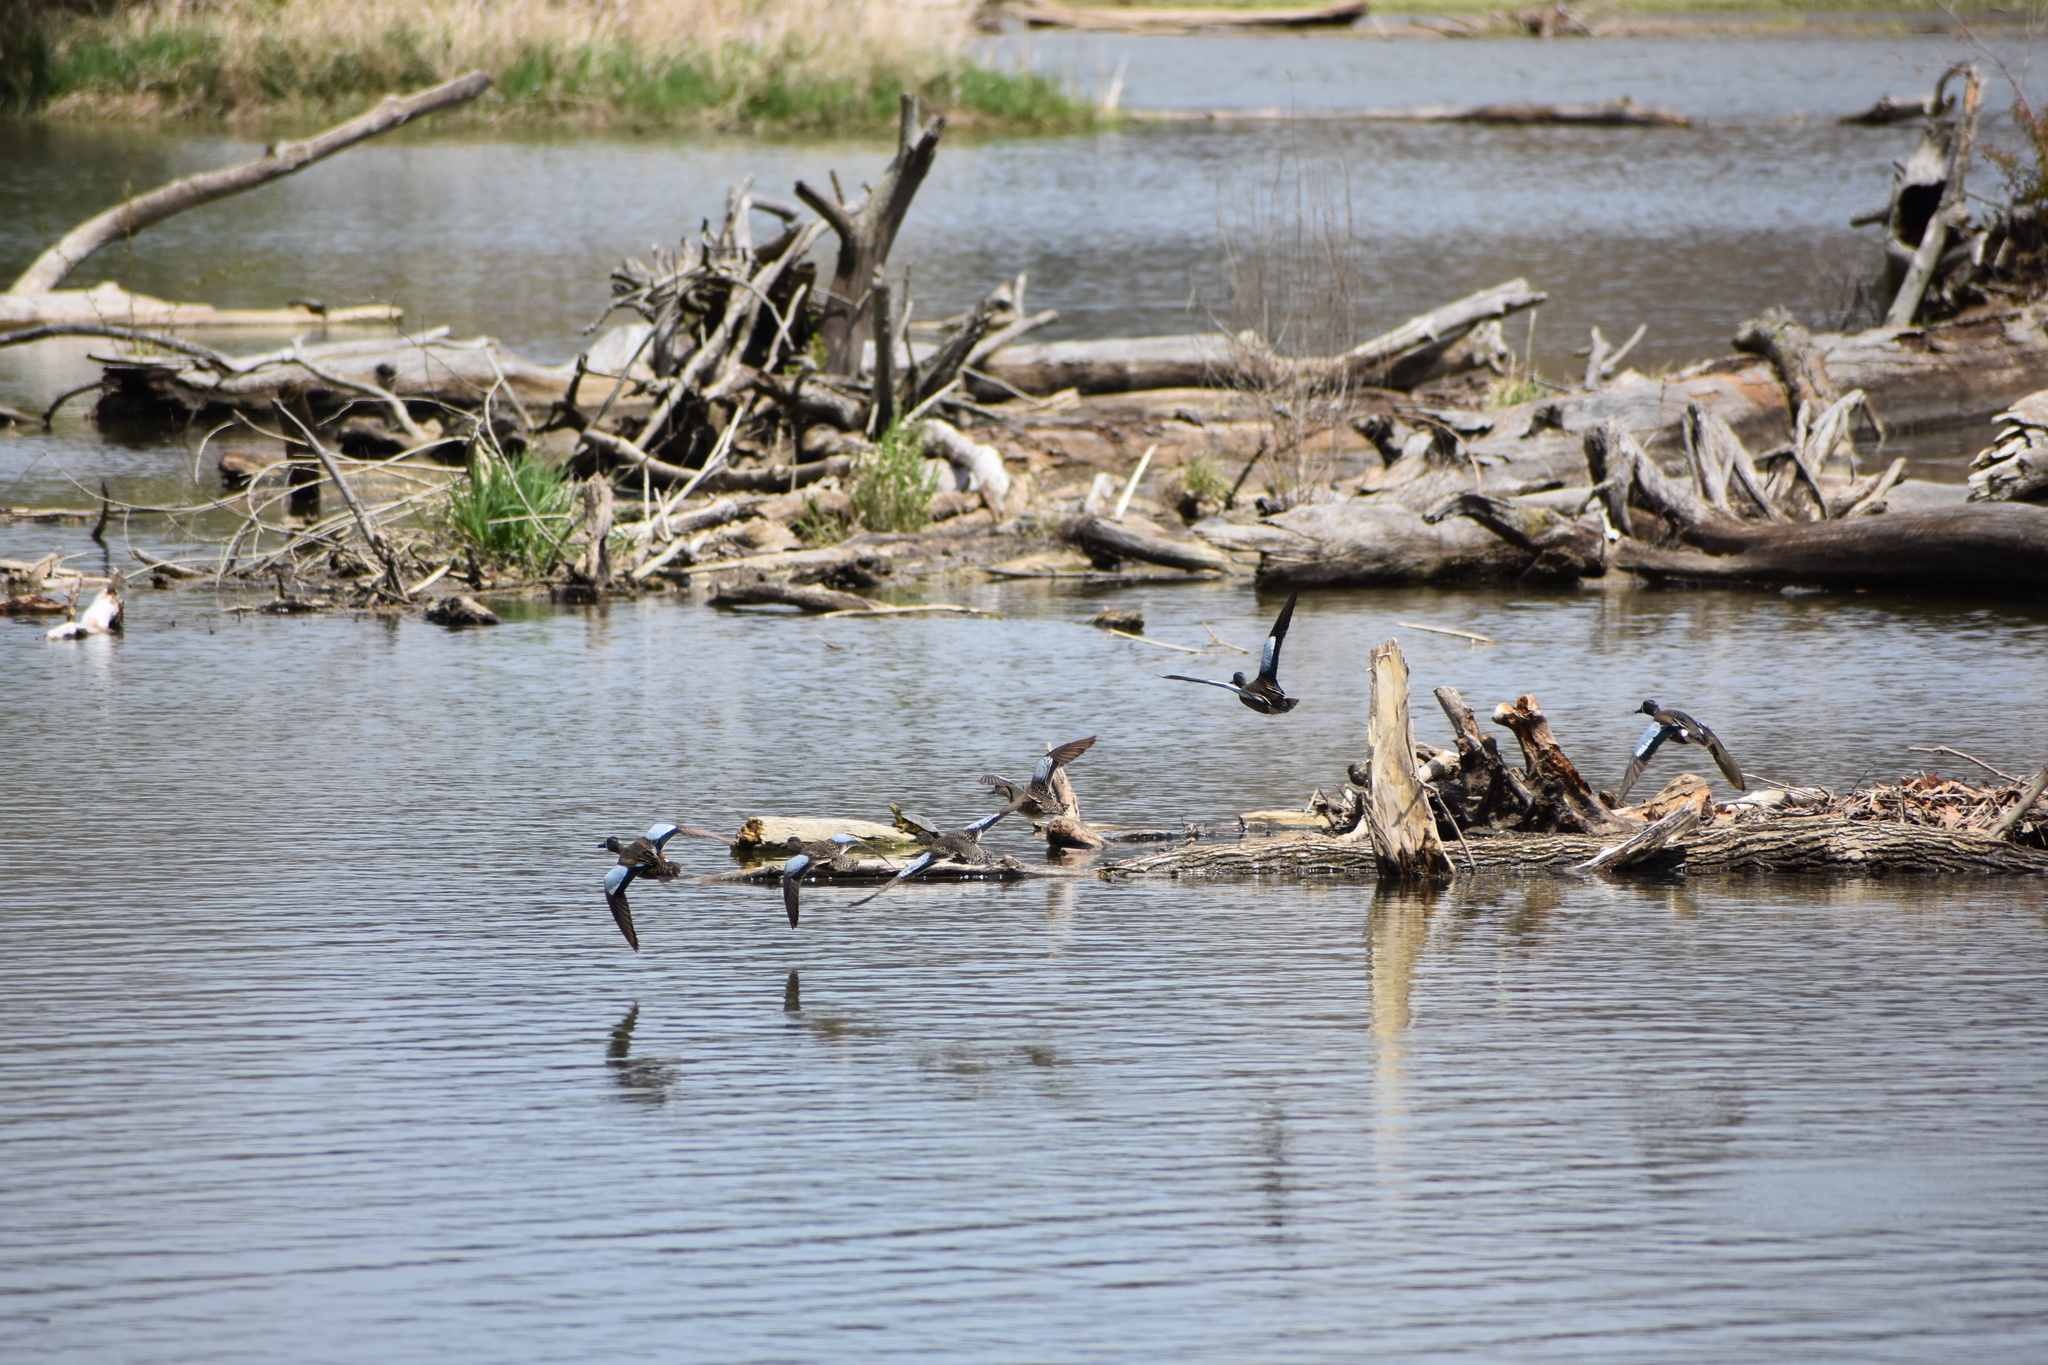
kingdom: Animalia
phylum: Chordata
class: Aves
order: Anseriformes
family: Anatidae
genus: Spatula
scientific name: Spatula discors
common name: Blue-winged teal
